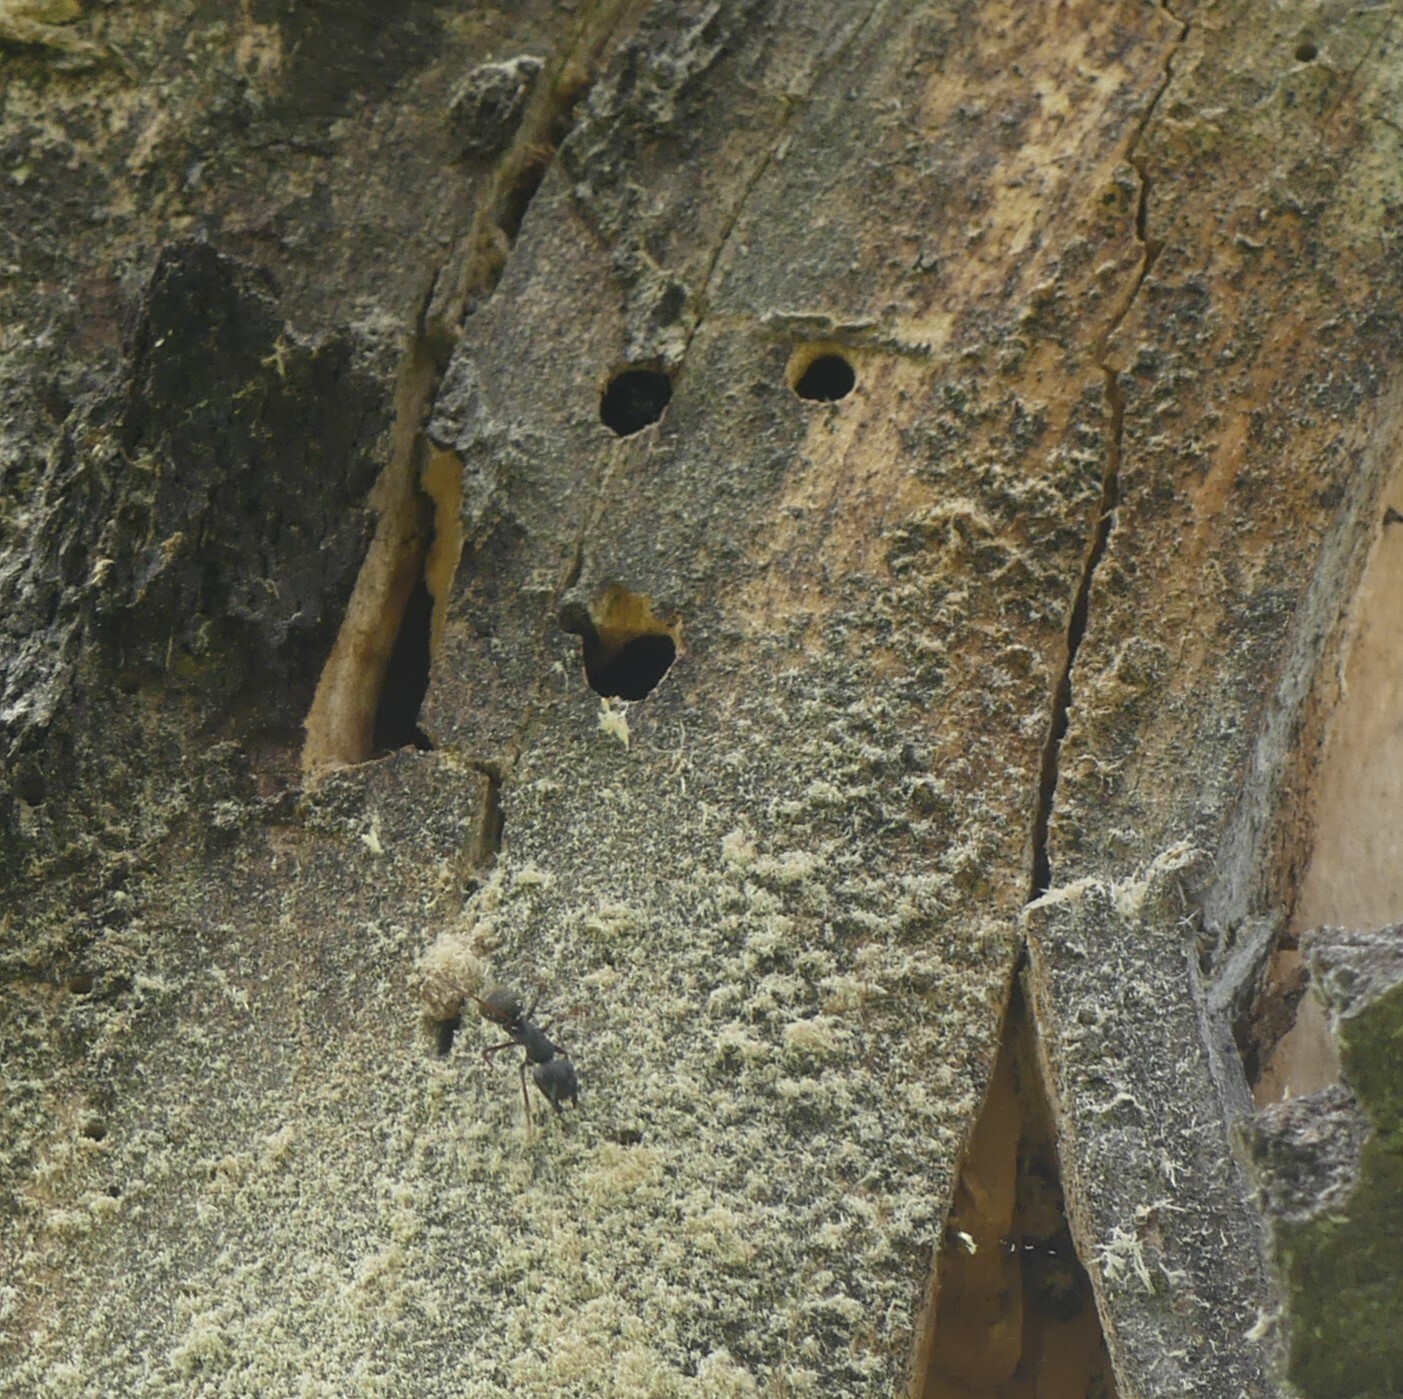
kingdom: Animalia
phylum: Arthropoda
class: Insecta
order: Hymenoptera
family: Formicidae
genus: Camponotus
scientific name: Camponotus modoc
